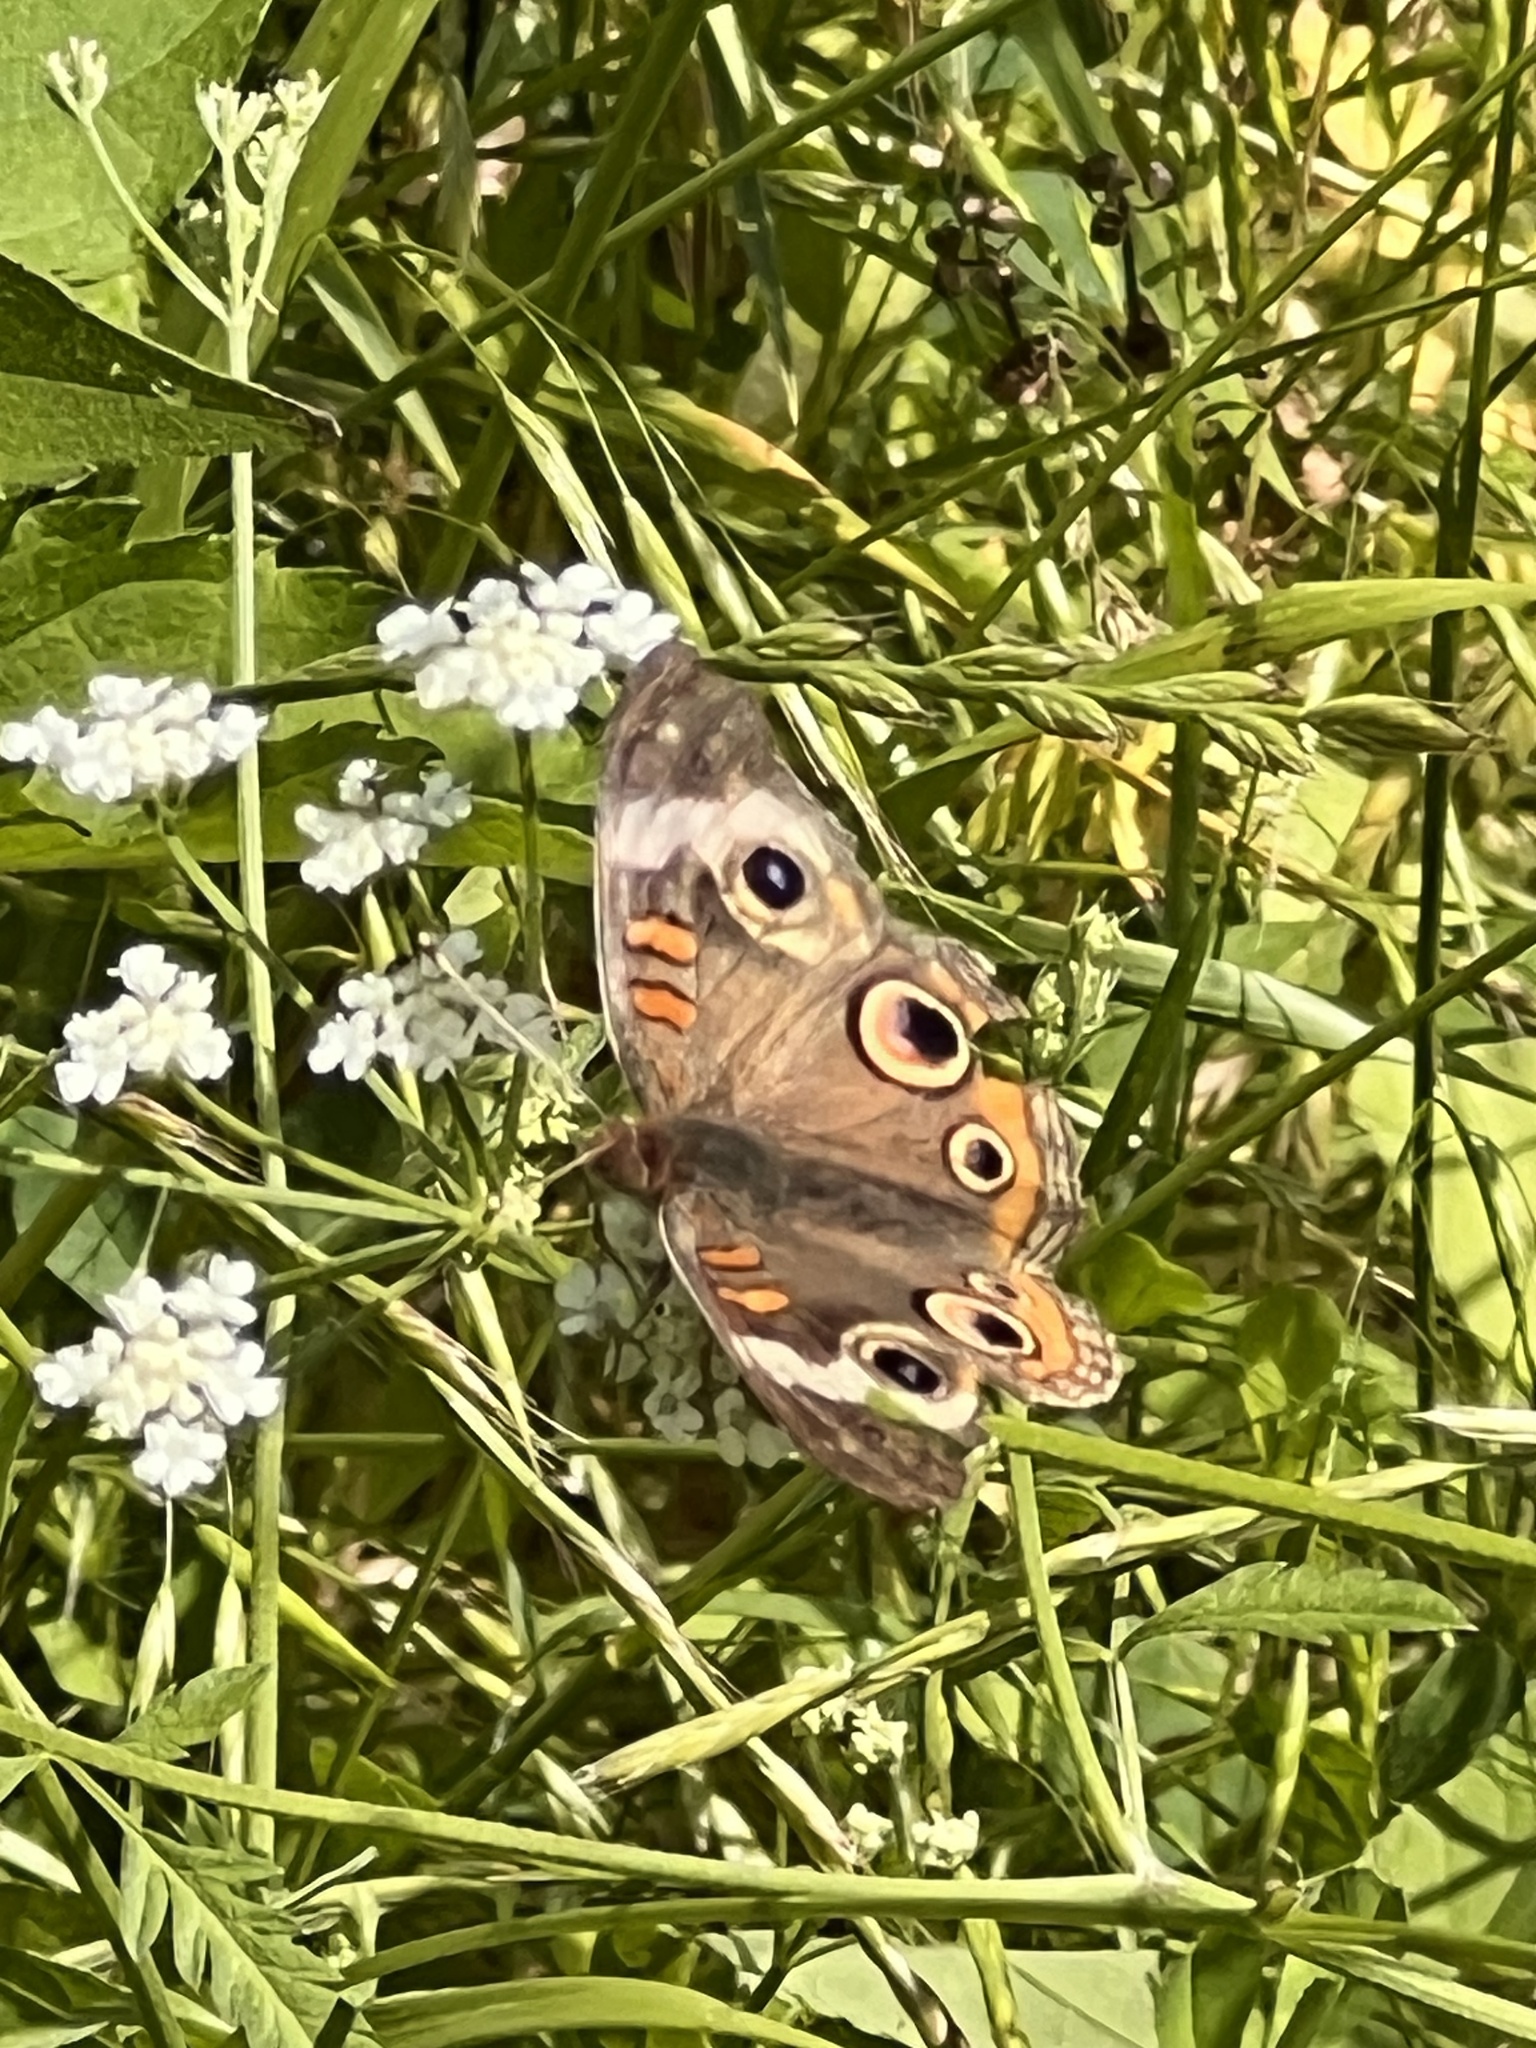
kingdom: Animalia
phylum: Arthropoda
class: Insecta
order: Lepidoptera
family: Nymphalidae
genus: Junonia
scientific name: Junonia coenia
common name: Common buckeye
